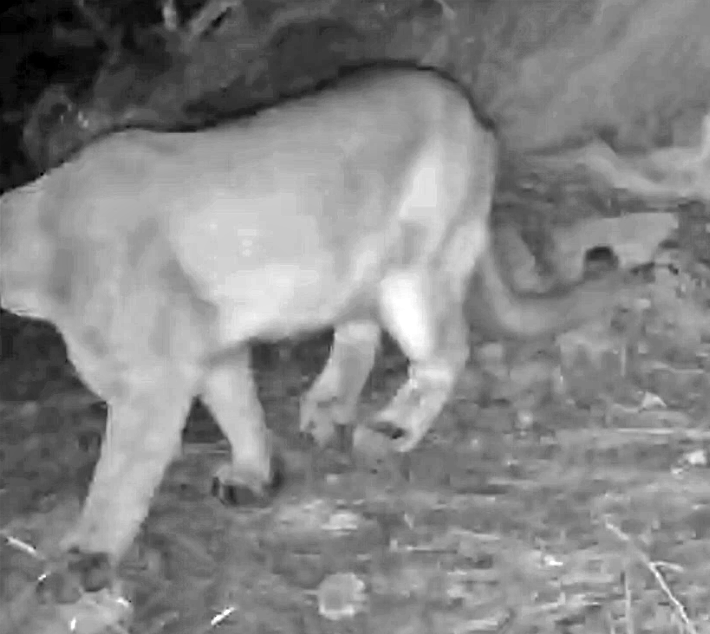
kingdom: Animalia
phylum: Chordata
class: Mammalia
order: Carnivora
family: Felidae
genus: Puma
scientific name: Puma concolor
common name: Puma
